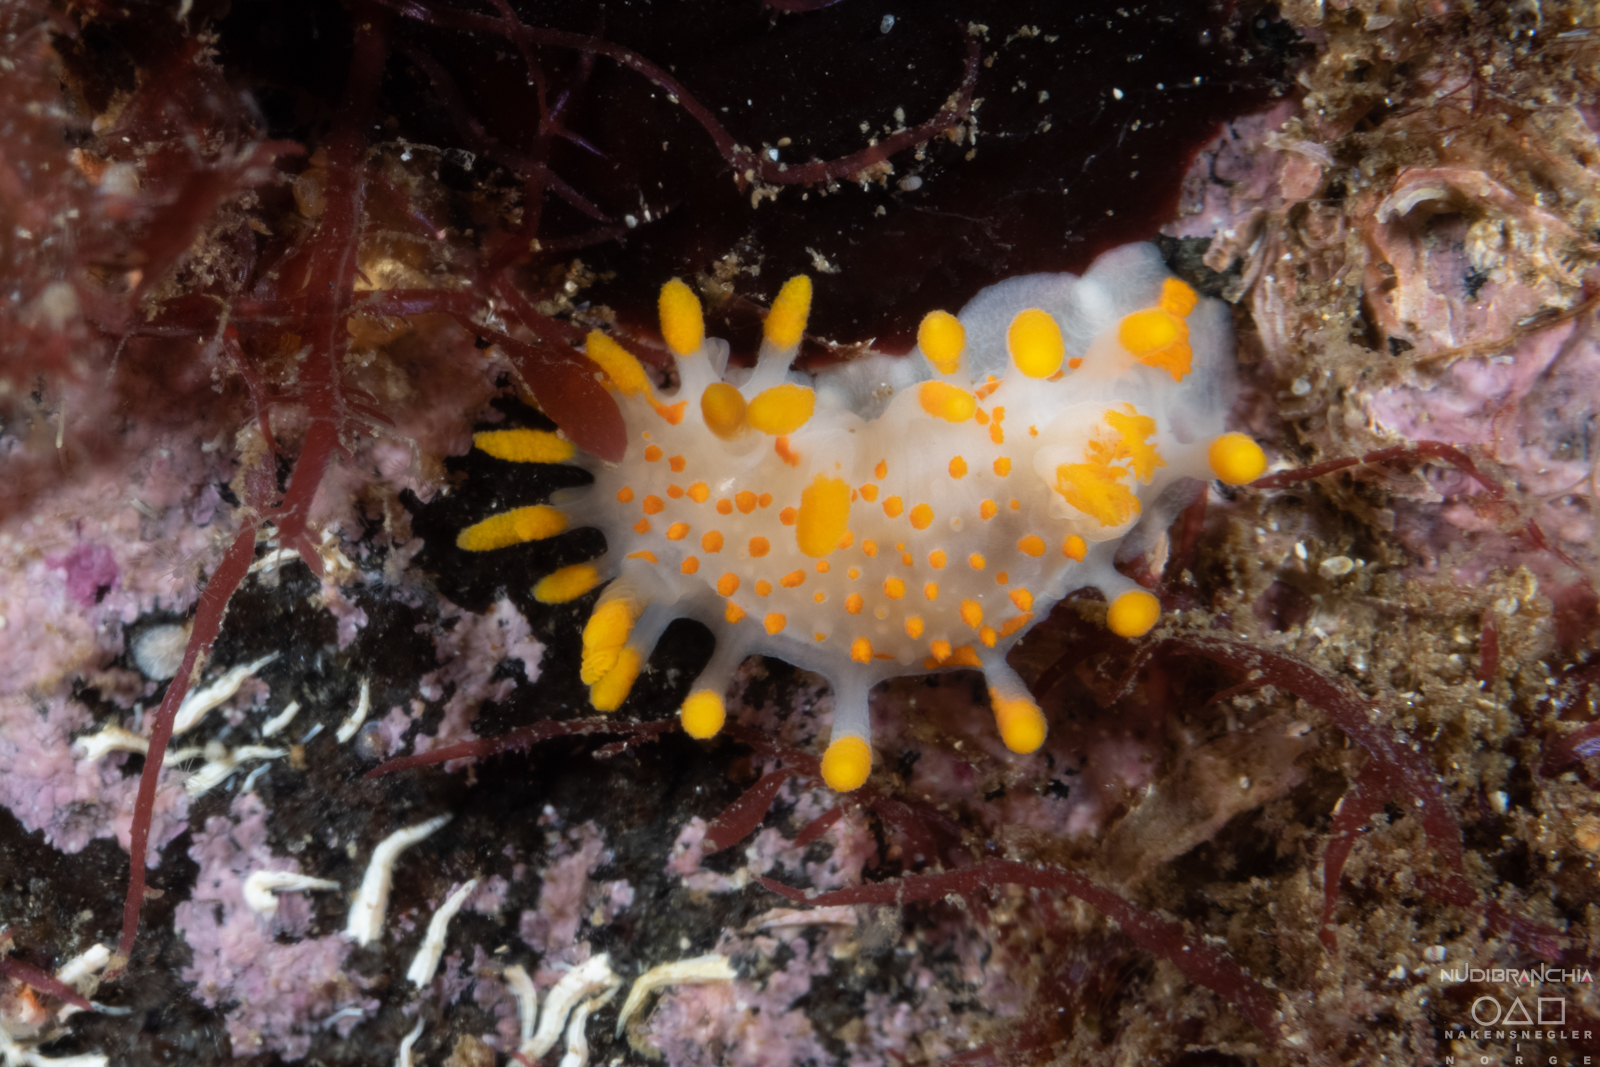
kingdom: Animalia
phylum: Mollusca
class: Gastropoda
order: Nudibranchia
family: Polyceridae
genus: Limacia
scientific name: Limacia clavigera
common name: Orange-clubbed sea slug
